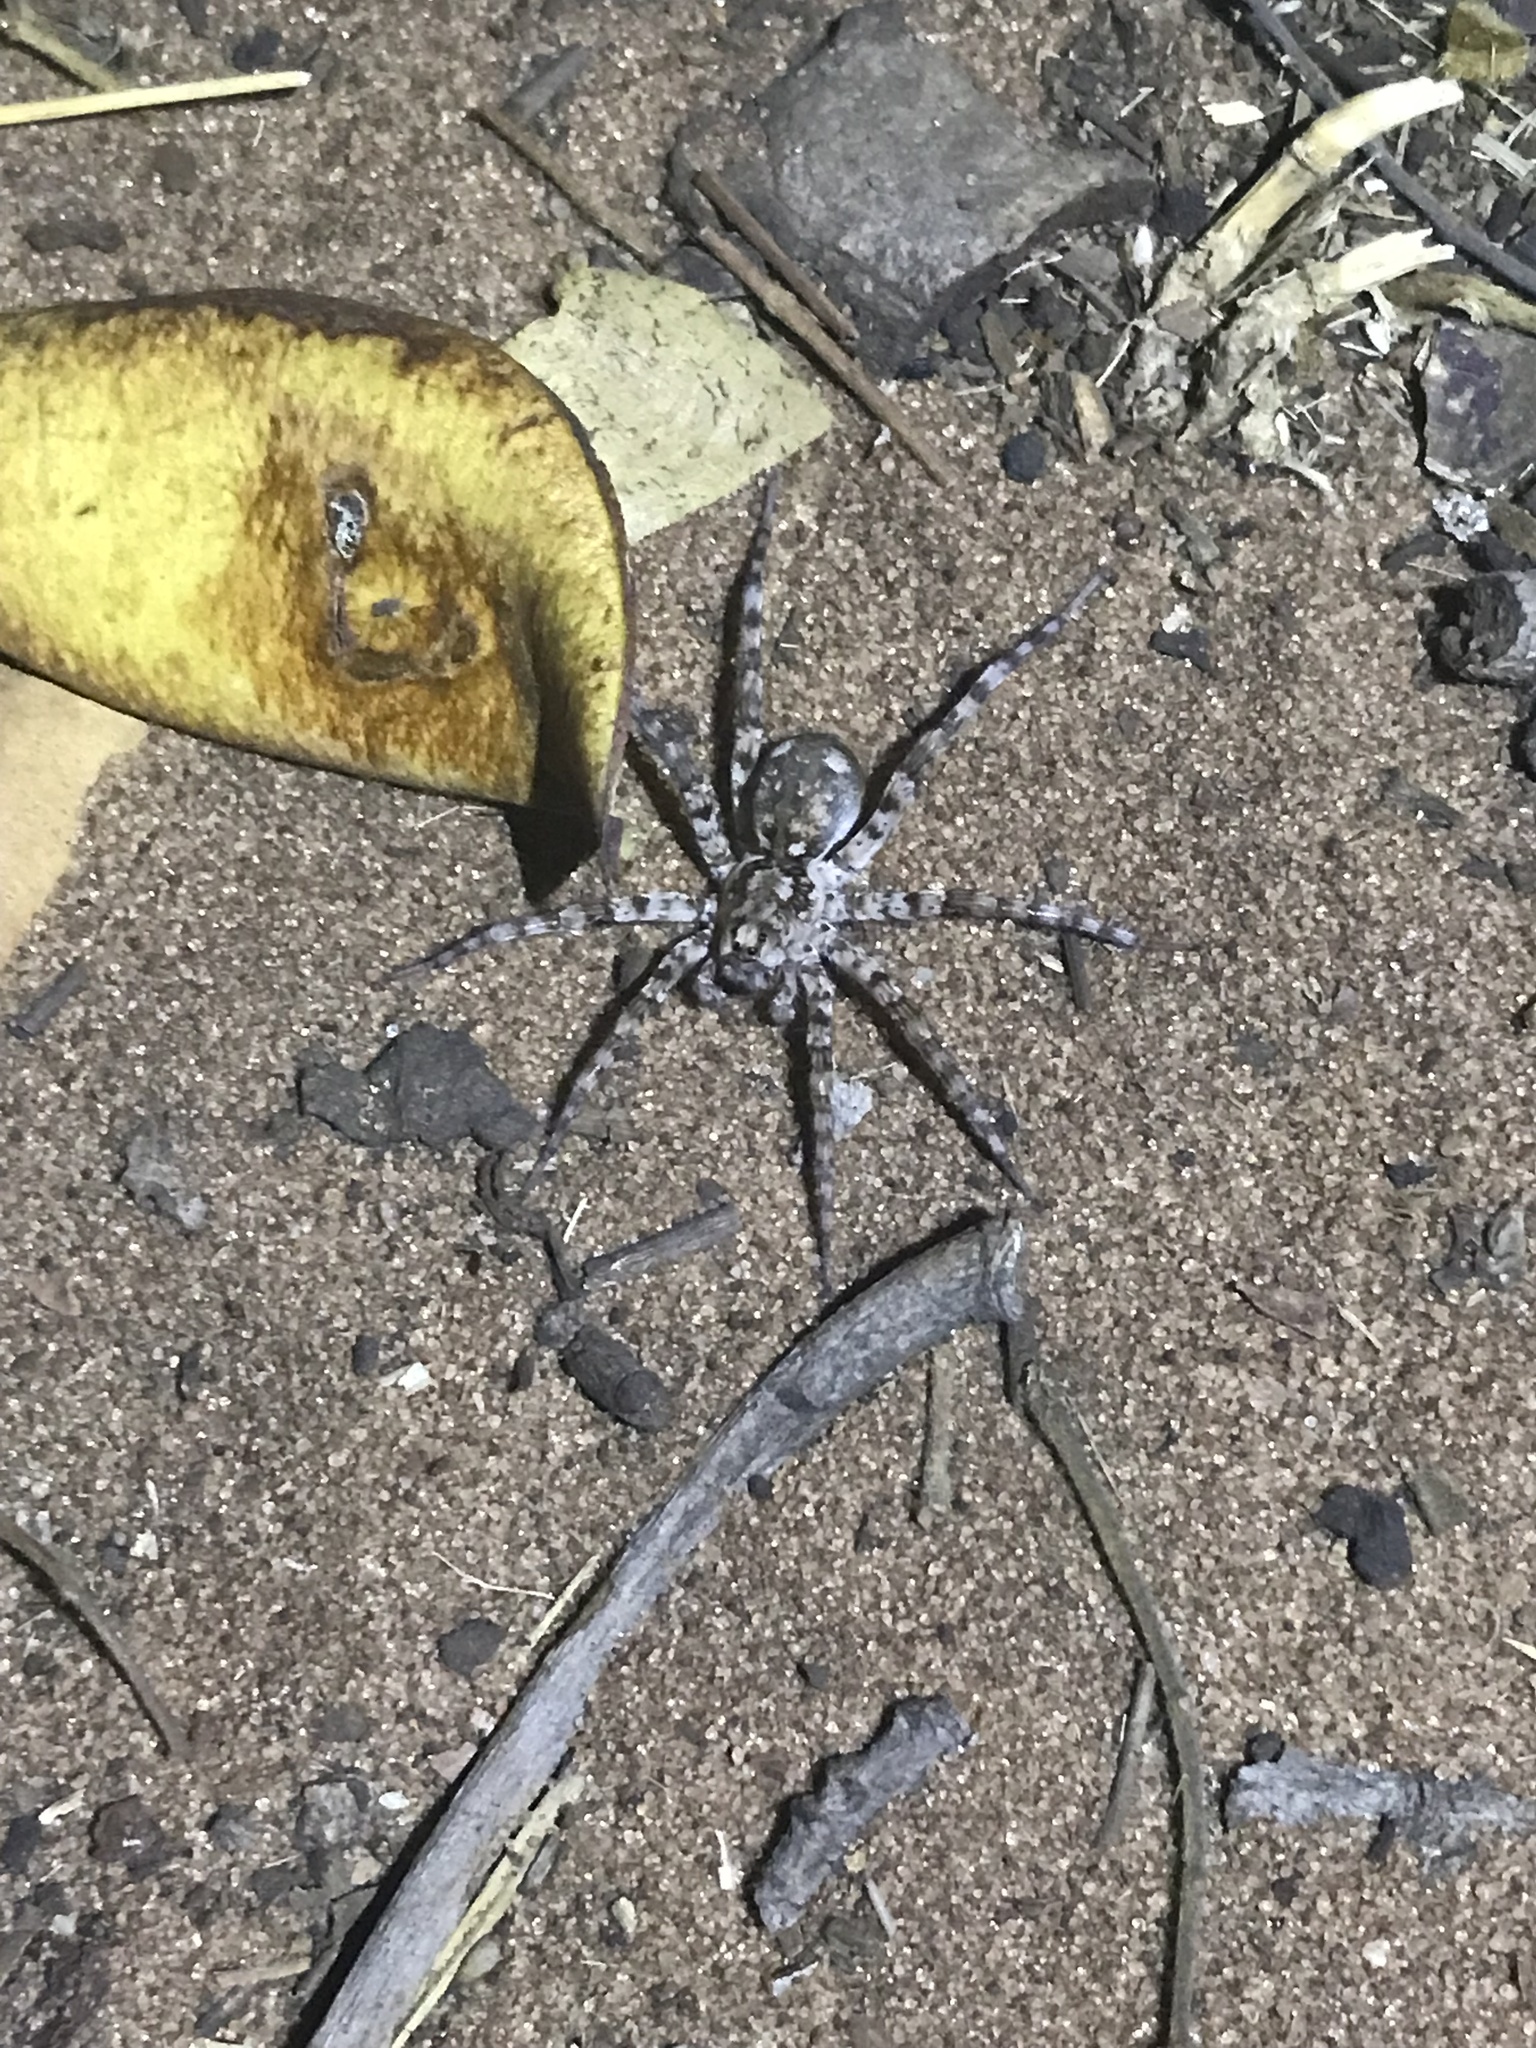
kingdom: Animalia
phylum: Arthropoda
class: Arachnida
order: Araneae
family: Lycosidae
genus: Ocyale
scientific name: Ocyale guttata
